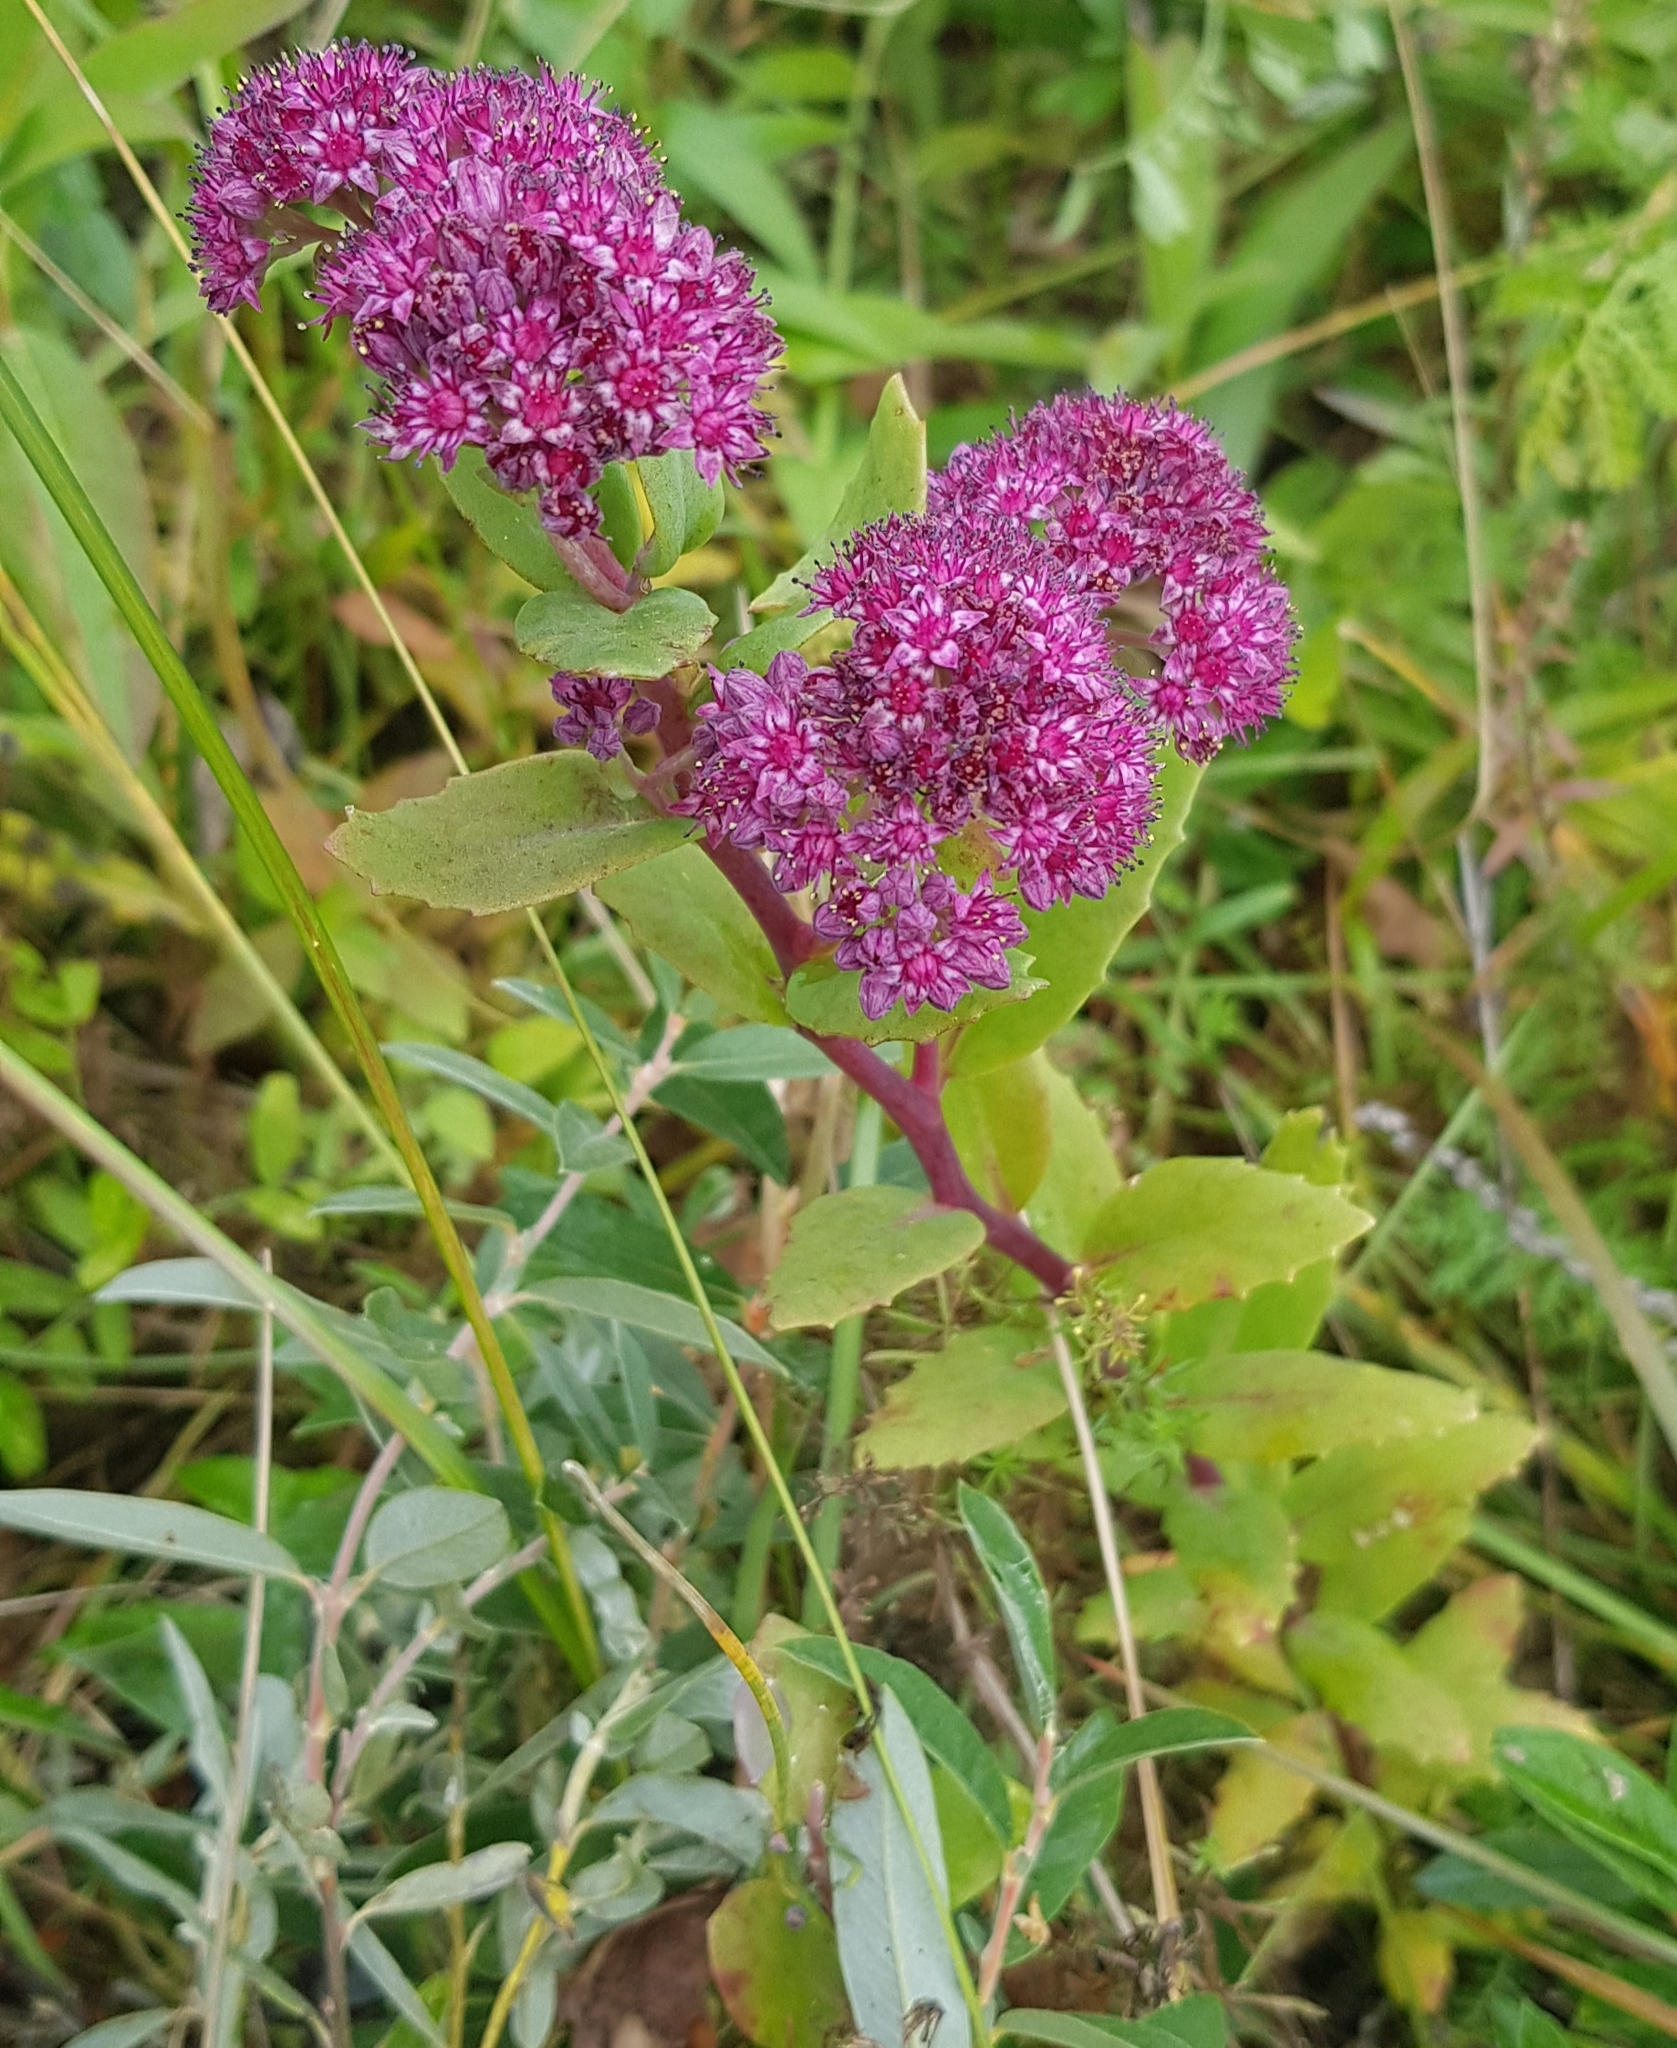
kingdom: Plantae
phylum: Tracheophyta
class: Magnoliopsida
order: Saxifragales
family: Crassulaceae
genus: Hylotelephium
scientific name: Hylotelephium telephium
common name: Live-forever
